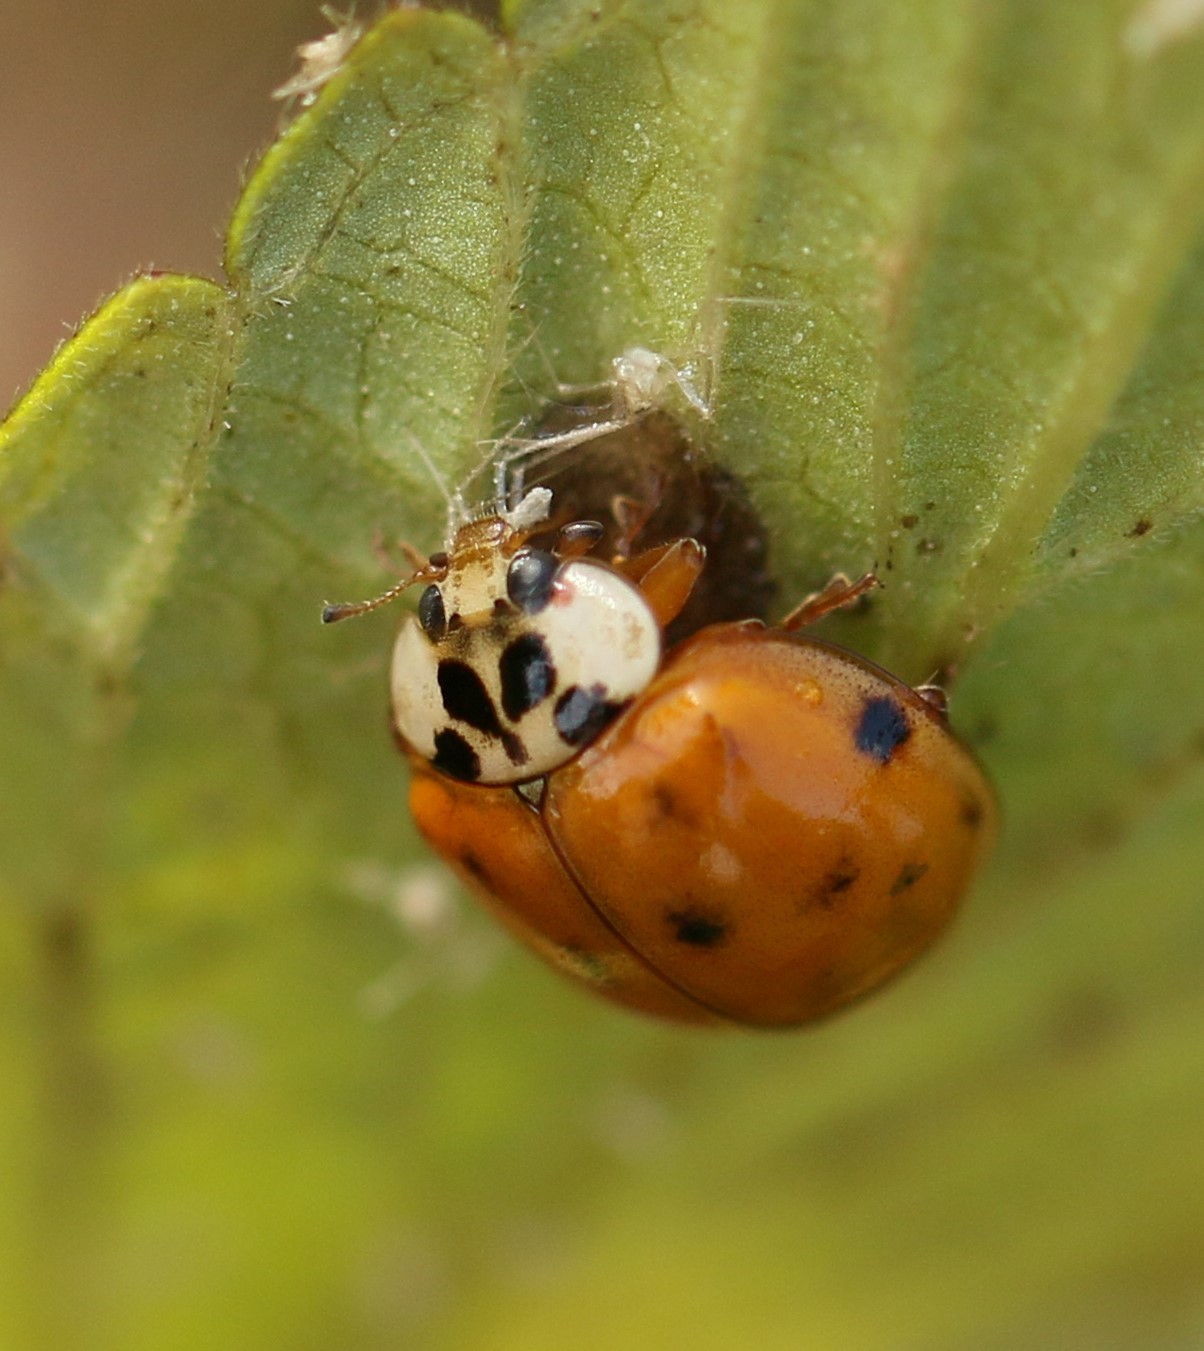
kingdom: Animalia
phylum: Arthropoda
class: Insecta
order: Coleoptera
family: Coccinellidae
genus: Harmonia
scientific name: Harmonia axyridis
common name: Harlequin ladybird
